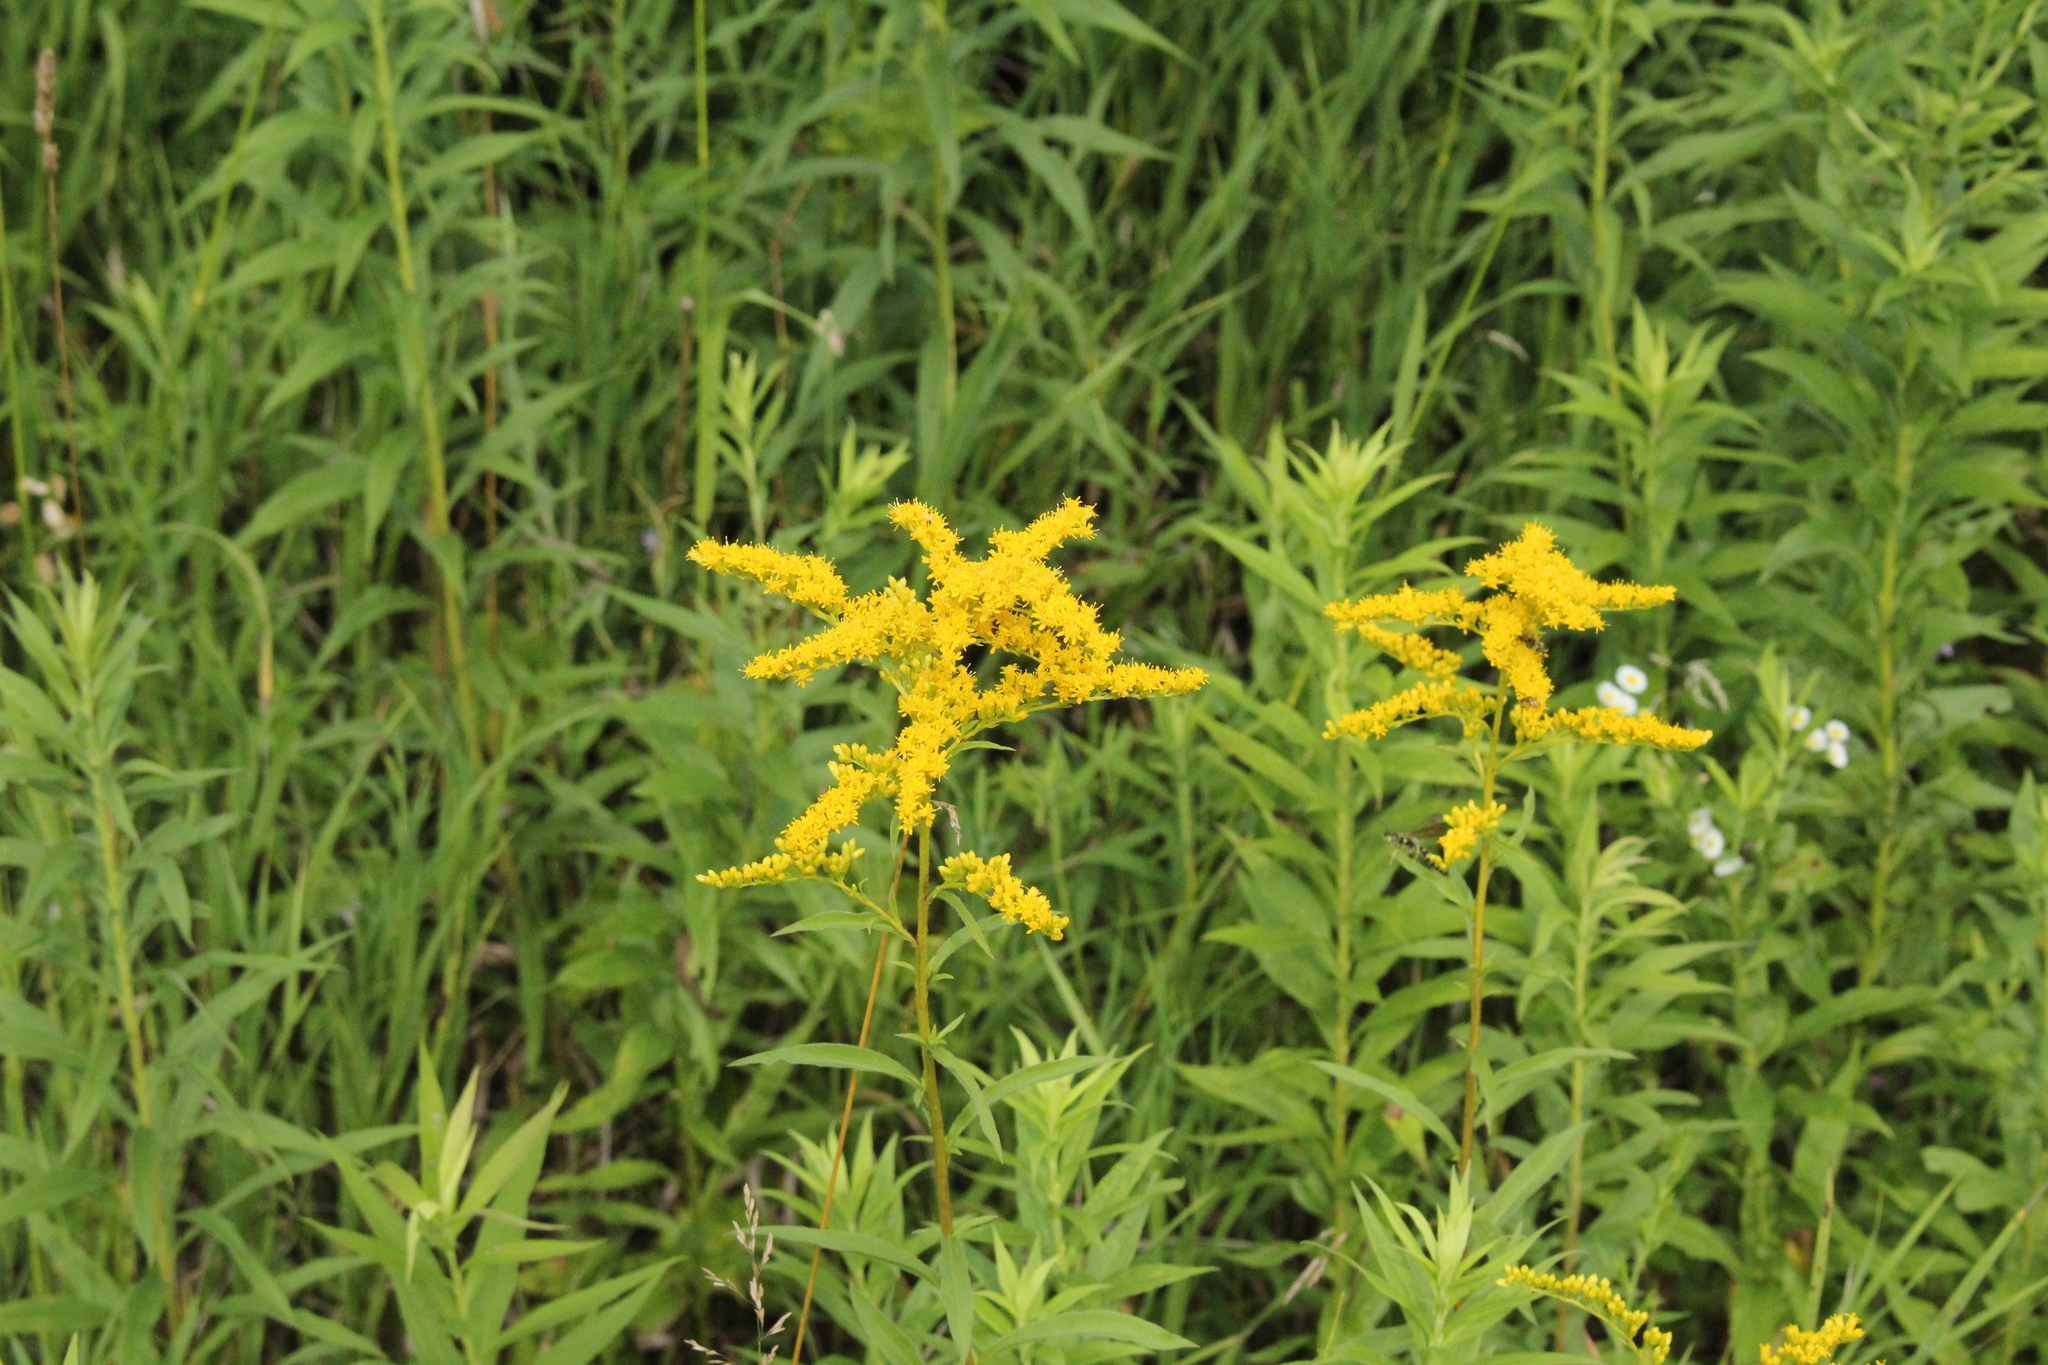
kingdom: Plantae
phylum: Tracheophyta
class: Magnoliopsida
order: Asterales
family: Asteraceae
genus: Solidago
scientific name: Solidago juncea
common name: Early goldenrod
